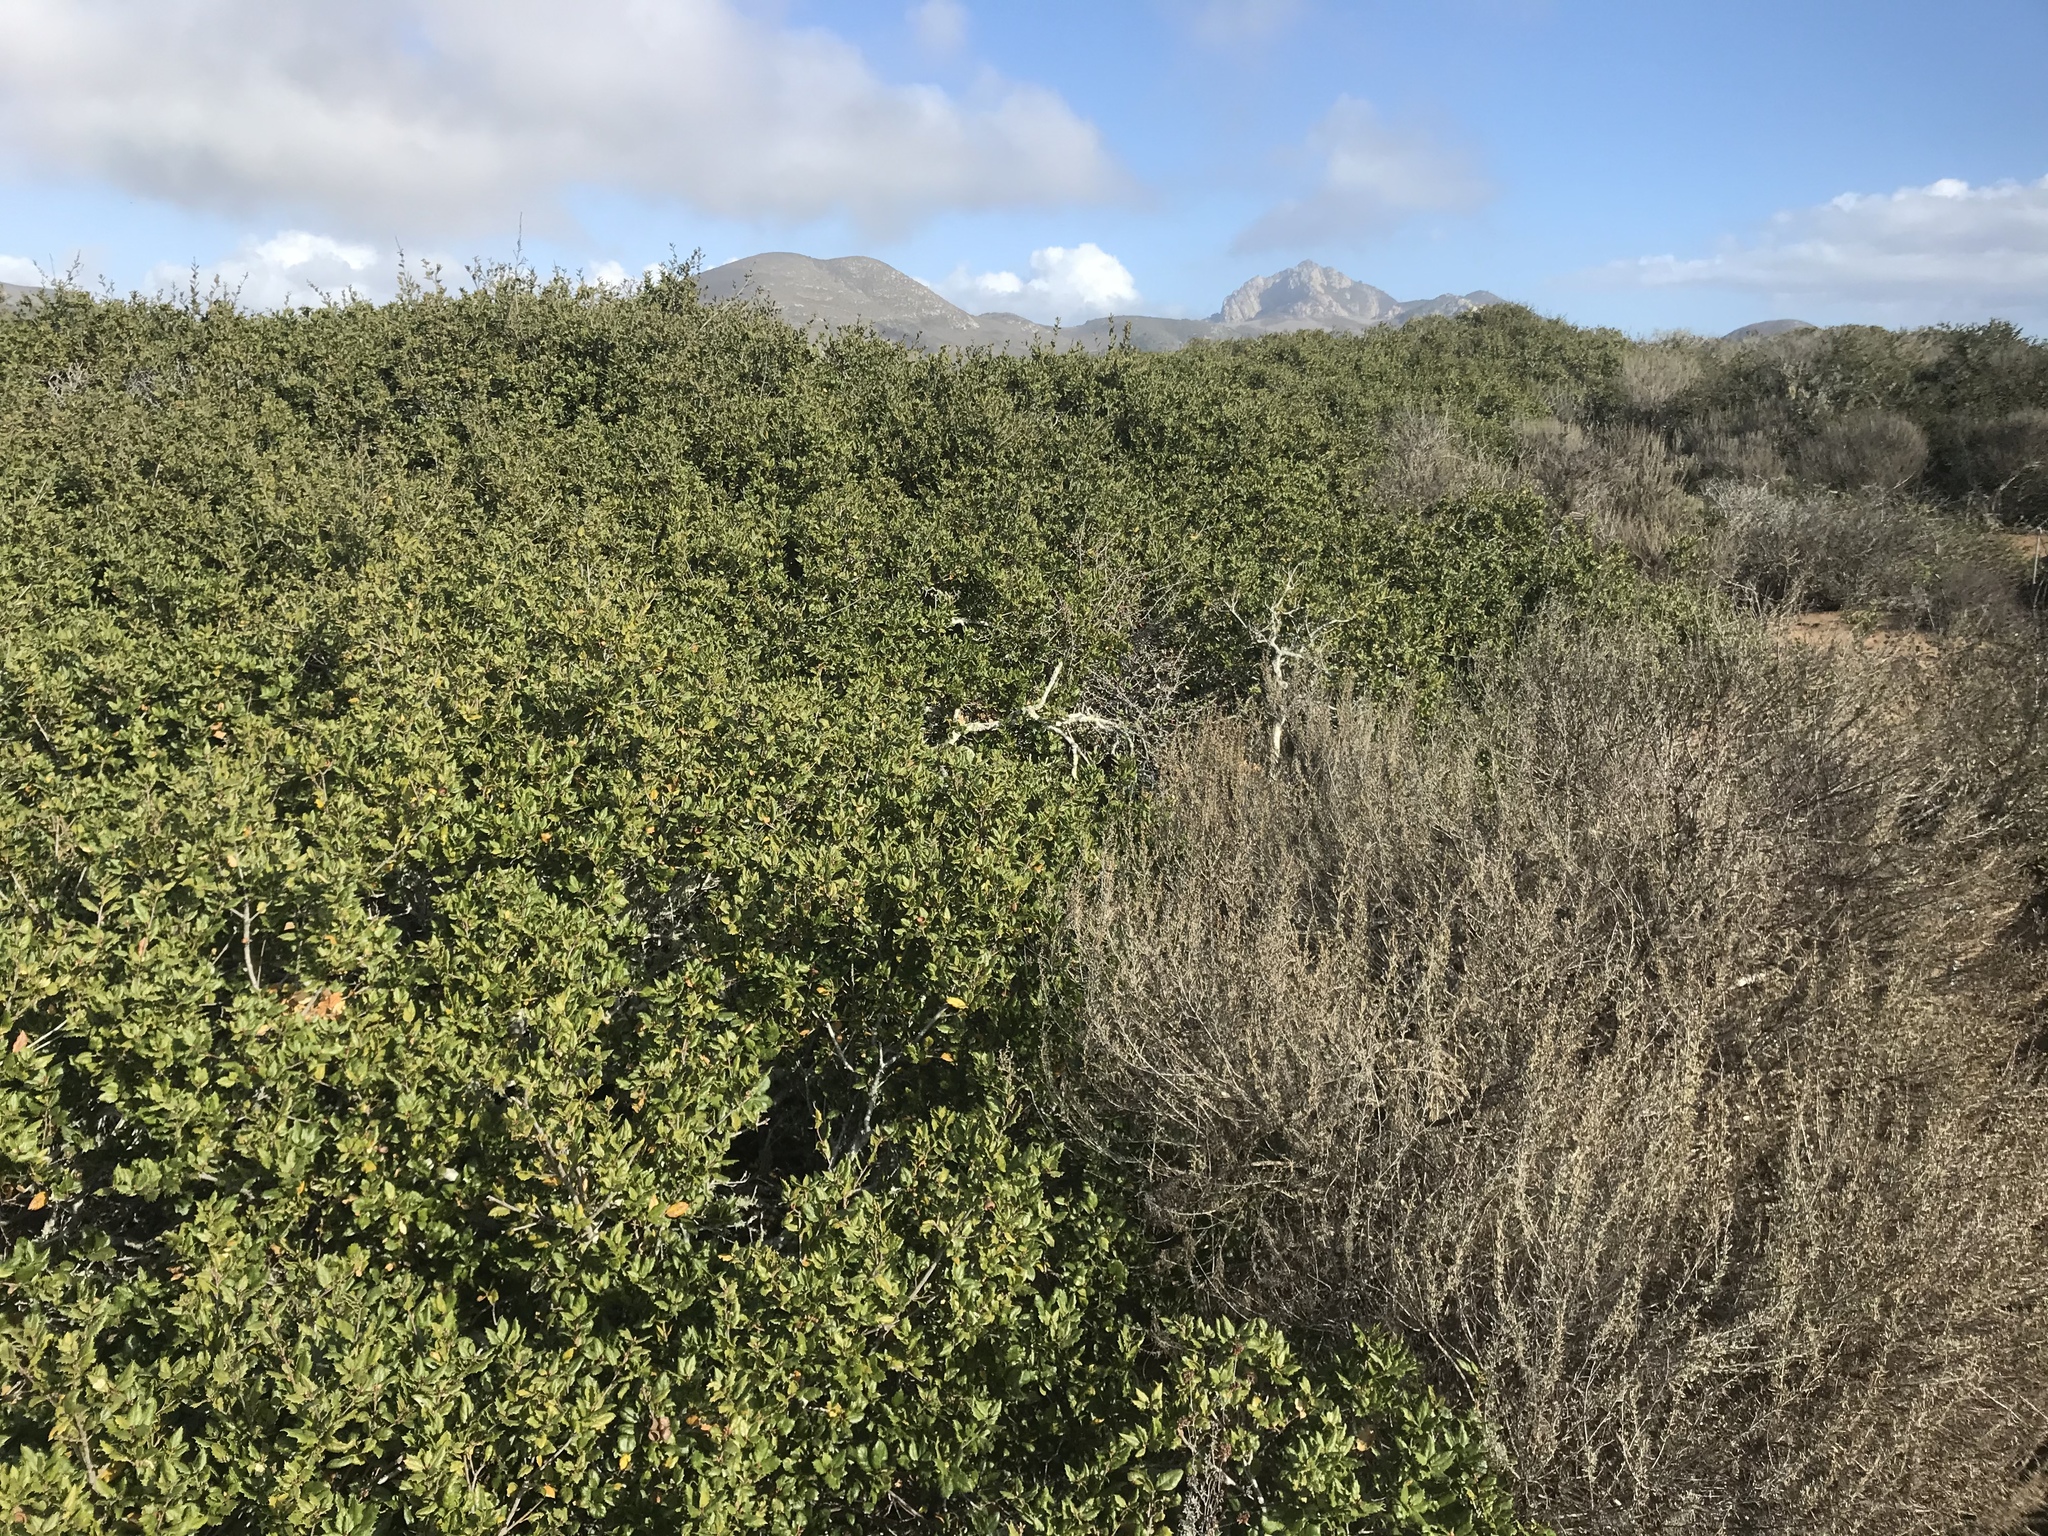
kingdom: Plantae
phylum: Tracheophyta
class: Magnoliopsida
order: Fagales
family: Fagaceae
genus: Quercus
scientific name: Quercus agrifolia
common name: California live oak
